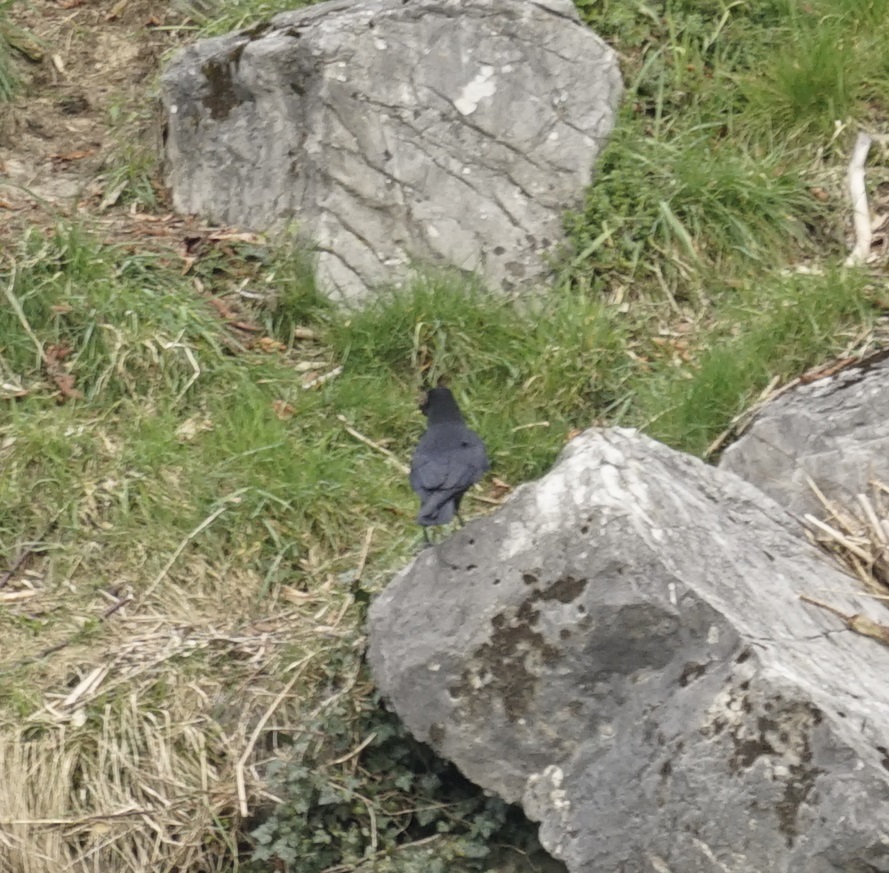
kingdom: Animalia
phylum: Chordata
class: Aves
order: Passeriformes
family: Corvidae
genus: Corvus
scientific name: Corvus corone
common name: Carrion crow
